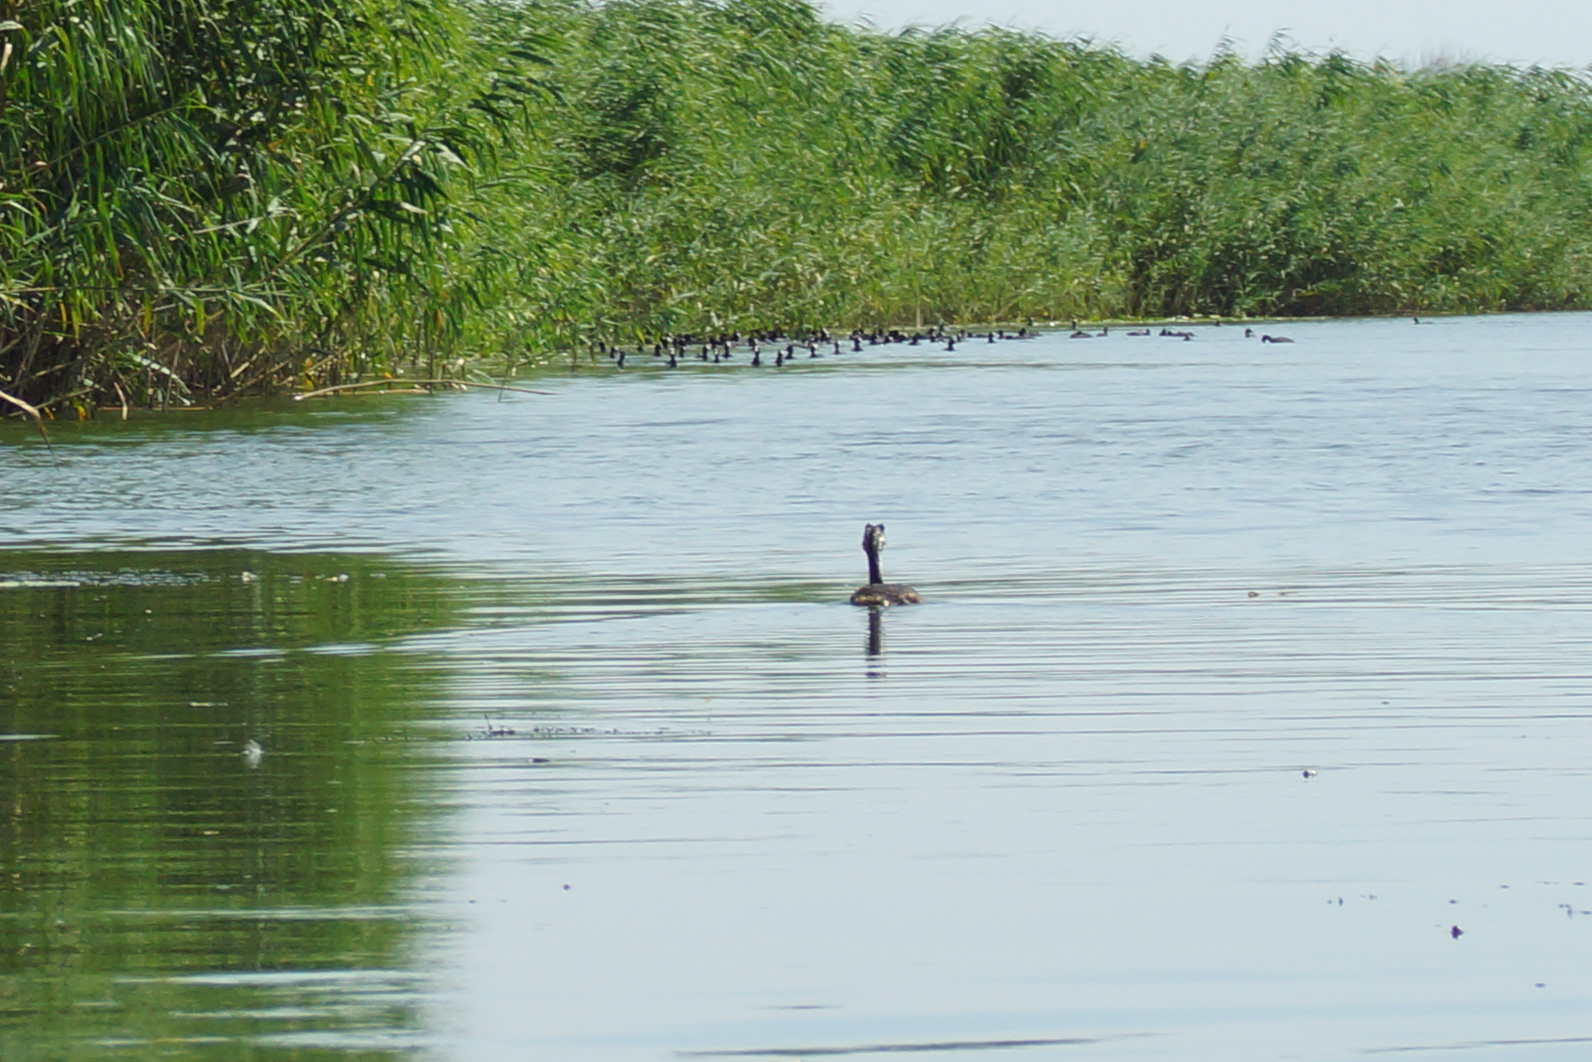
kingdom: Animalia
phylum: Chordata
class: Aves
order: Podicipediformes
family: Podicipedidae
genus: Podiceps
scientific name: Podiceps cristatus
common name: Great crested grebe
